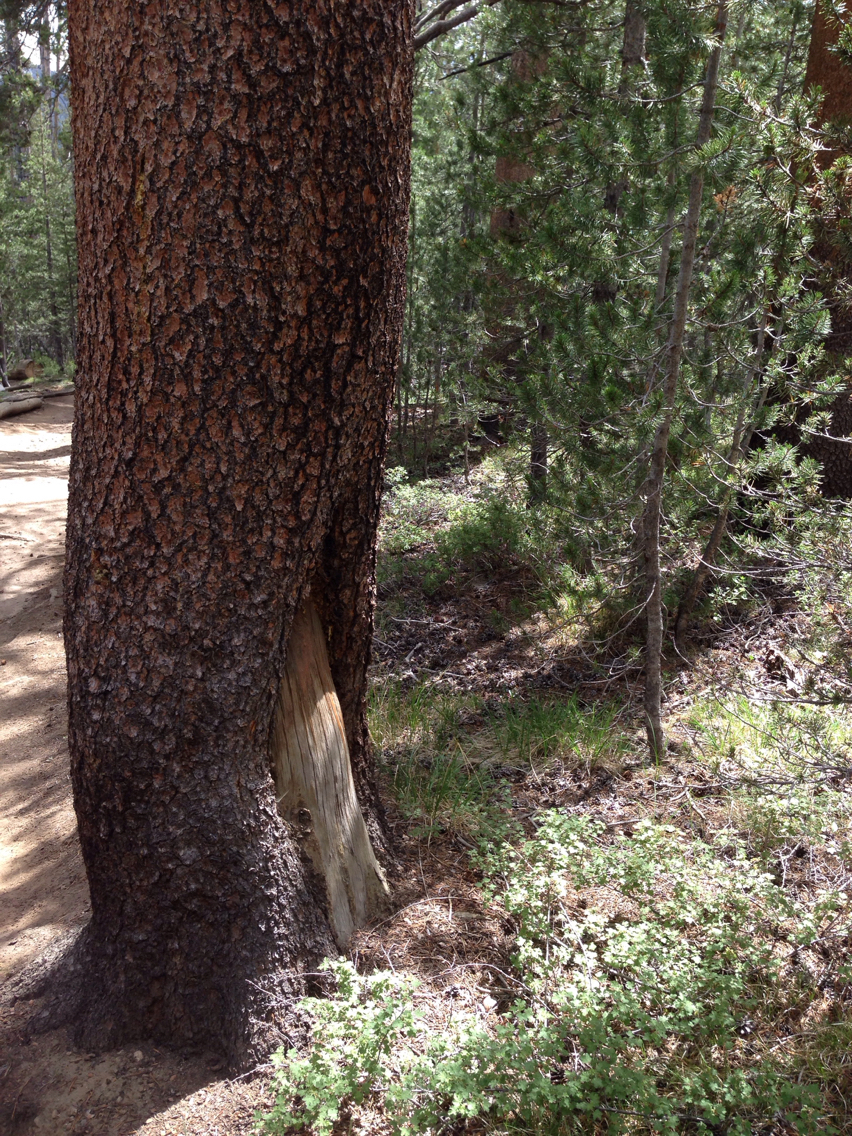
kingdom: Plantae
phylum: Tracheophyta
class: Pinopsida
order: Pinales
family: Pinaceae
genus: Pinus
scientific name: Pinus contorta
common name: Lodgepole pine
